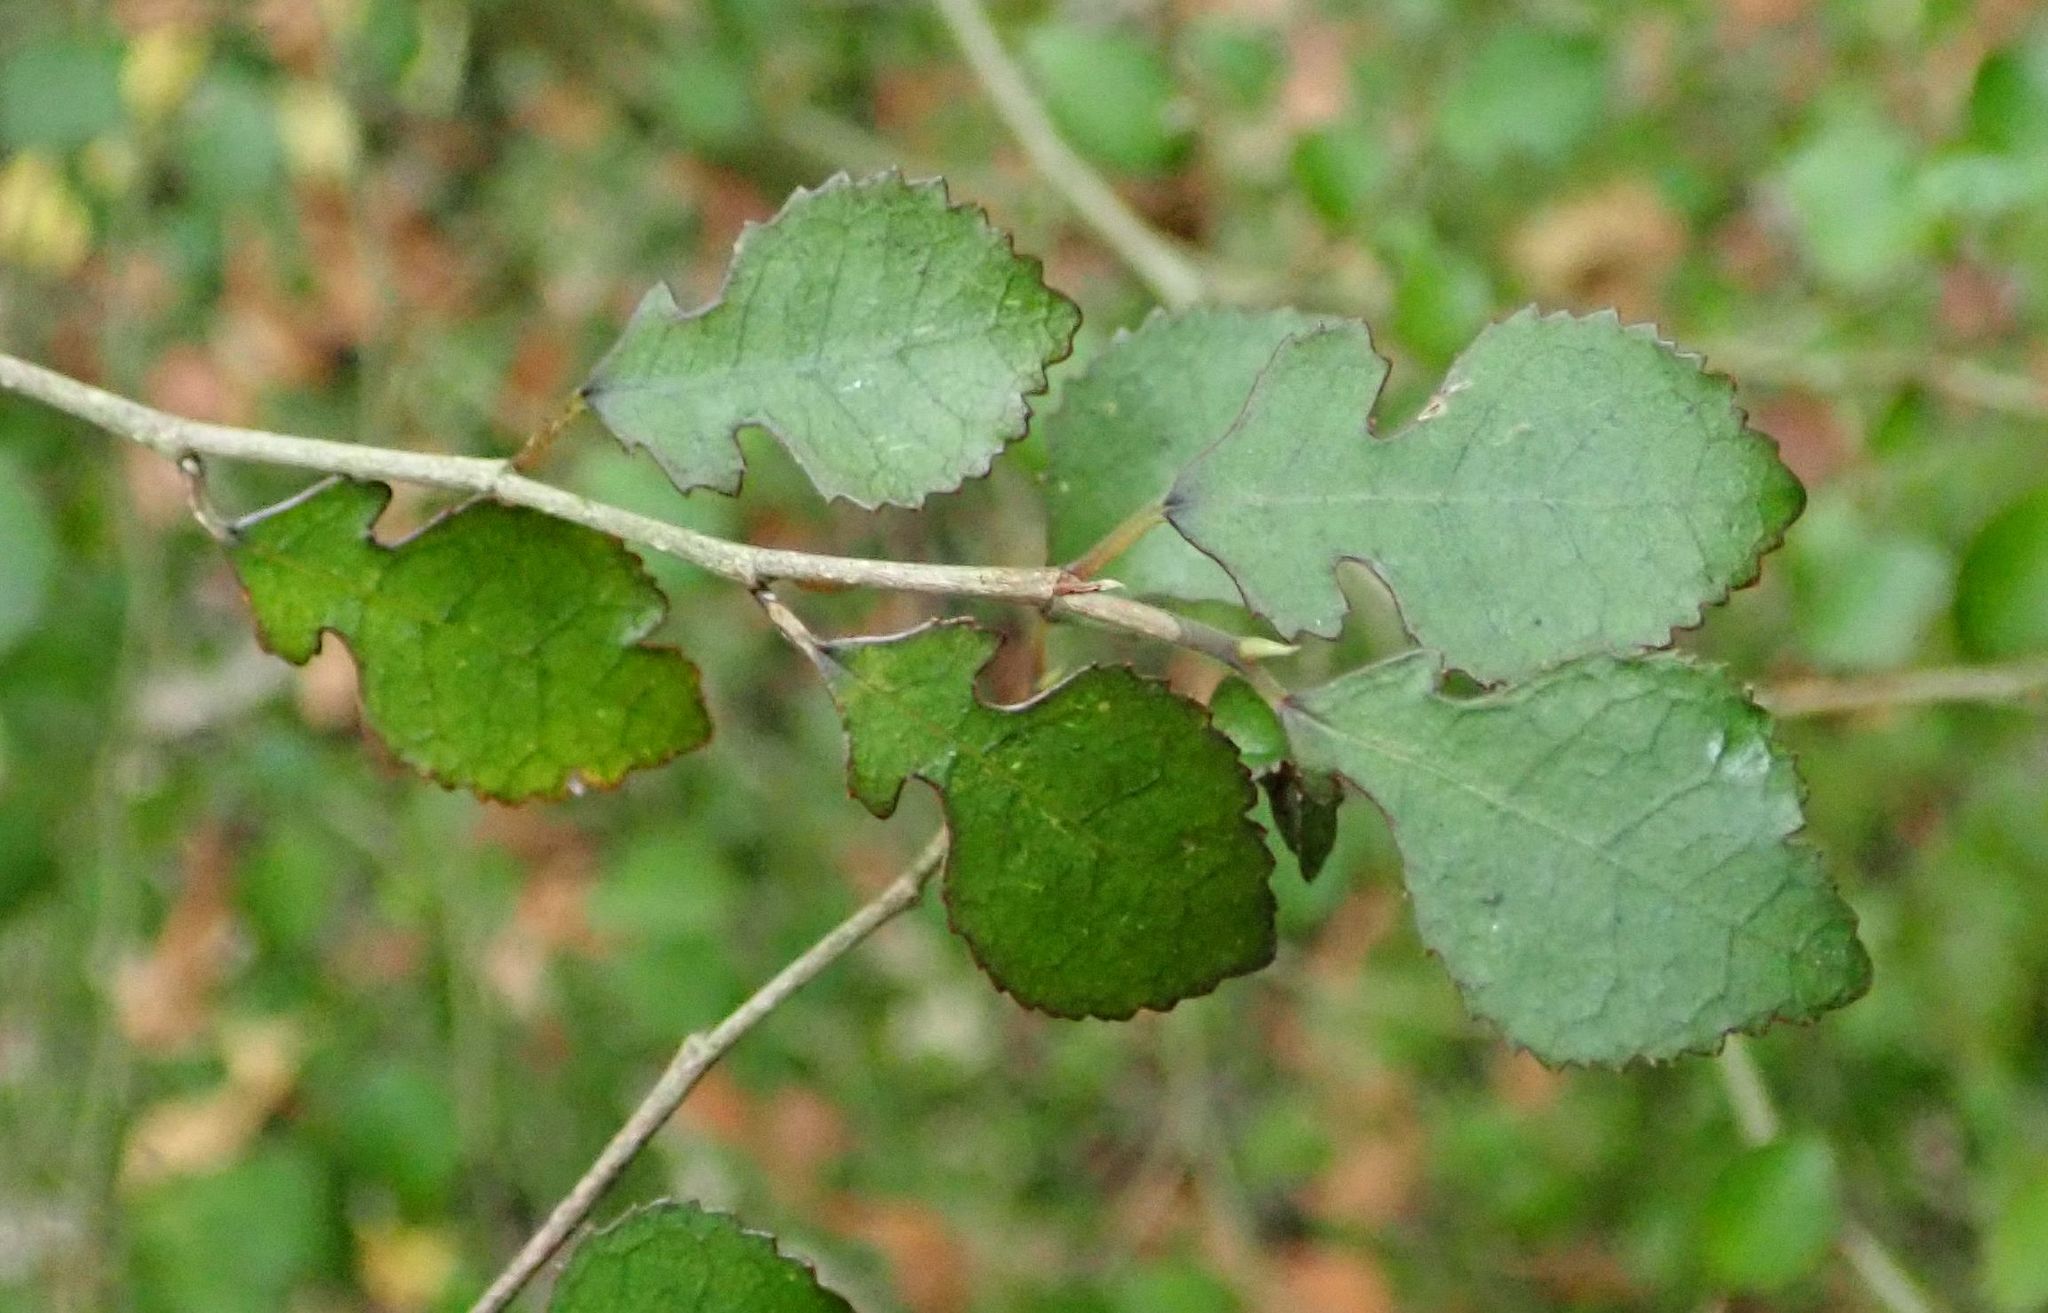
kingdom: Plantae
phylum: Tracheophyta
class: Magnoliopsida
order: Rosales
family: Moraceae
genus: Paratrophis
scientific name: Paratrophis microphylla
